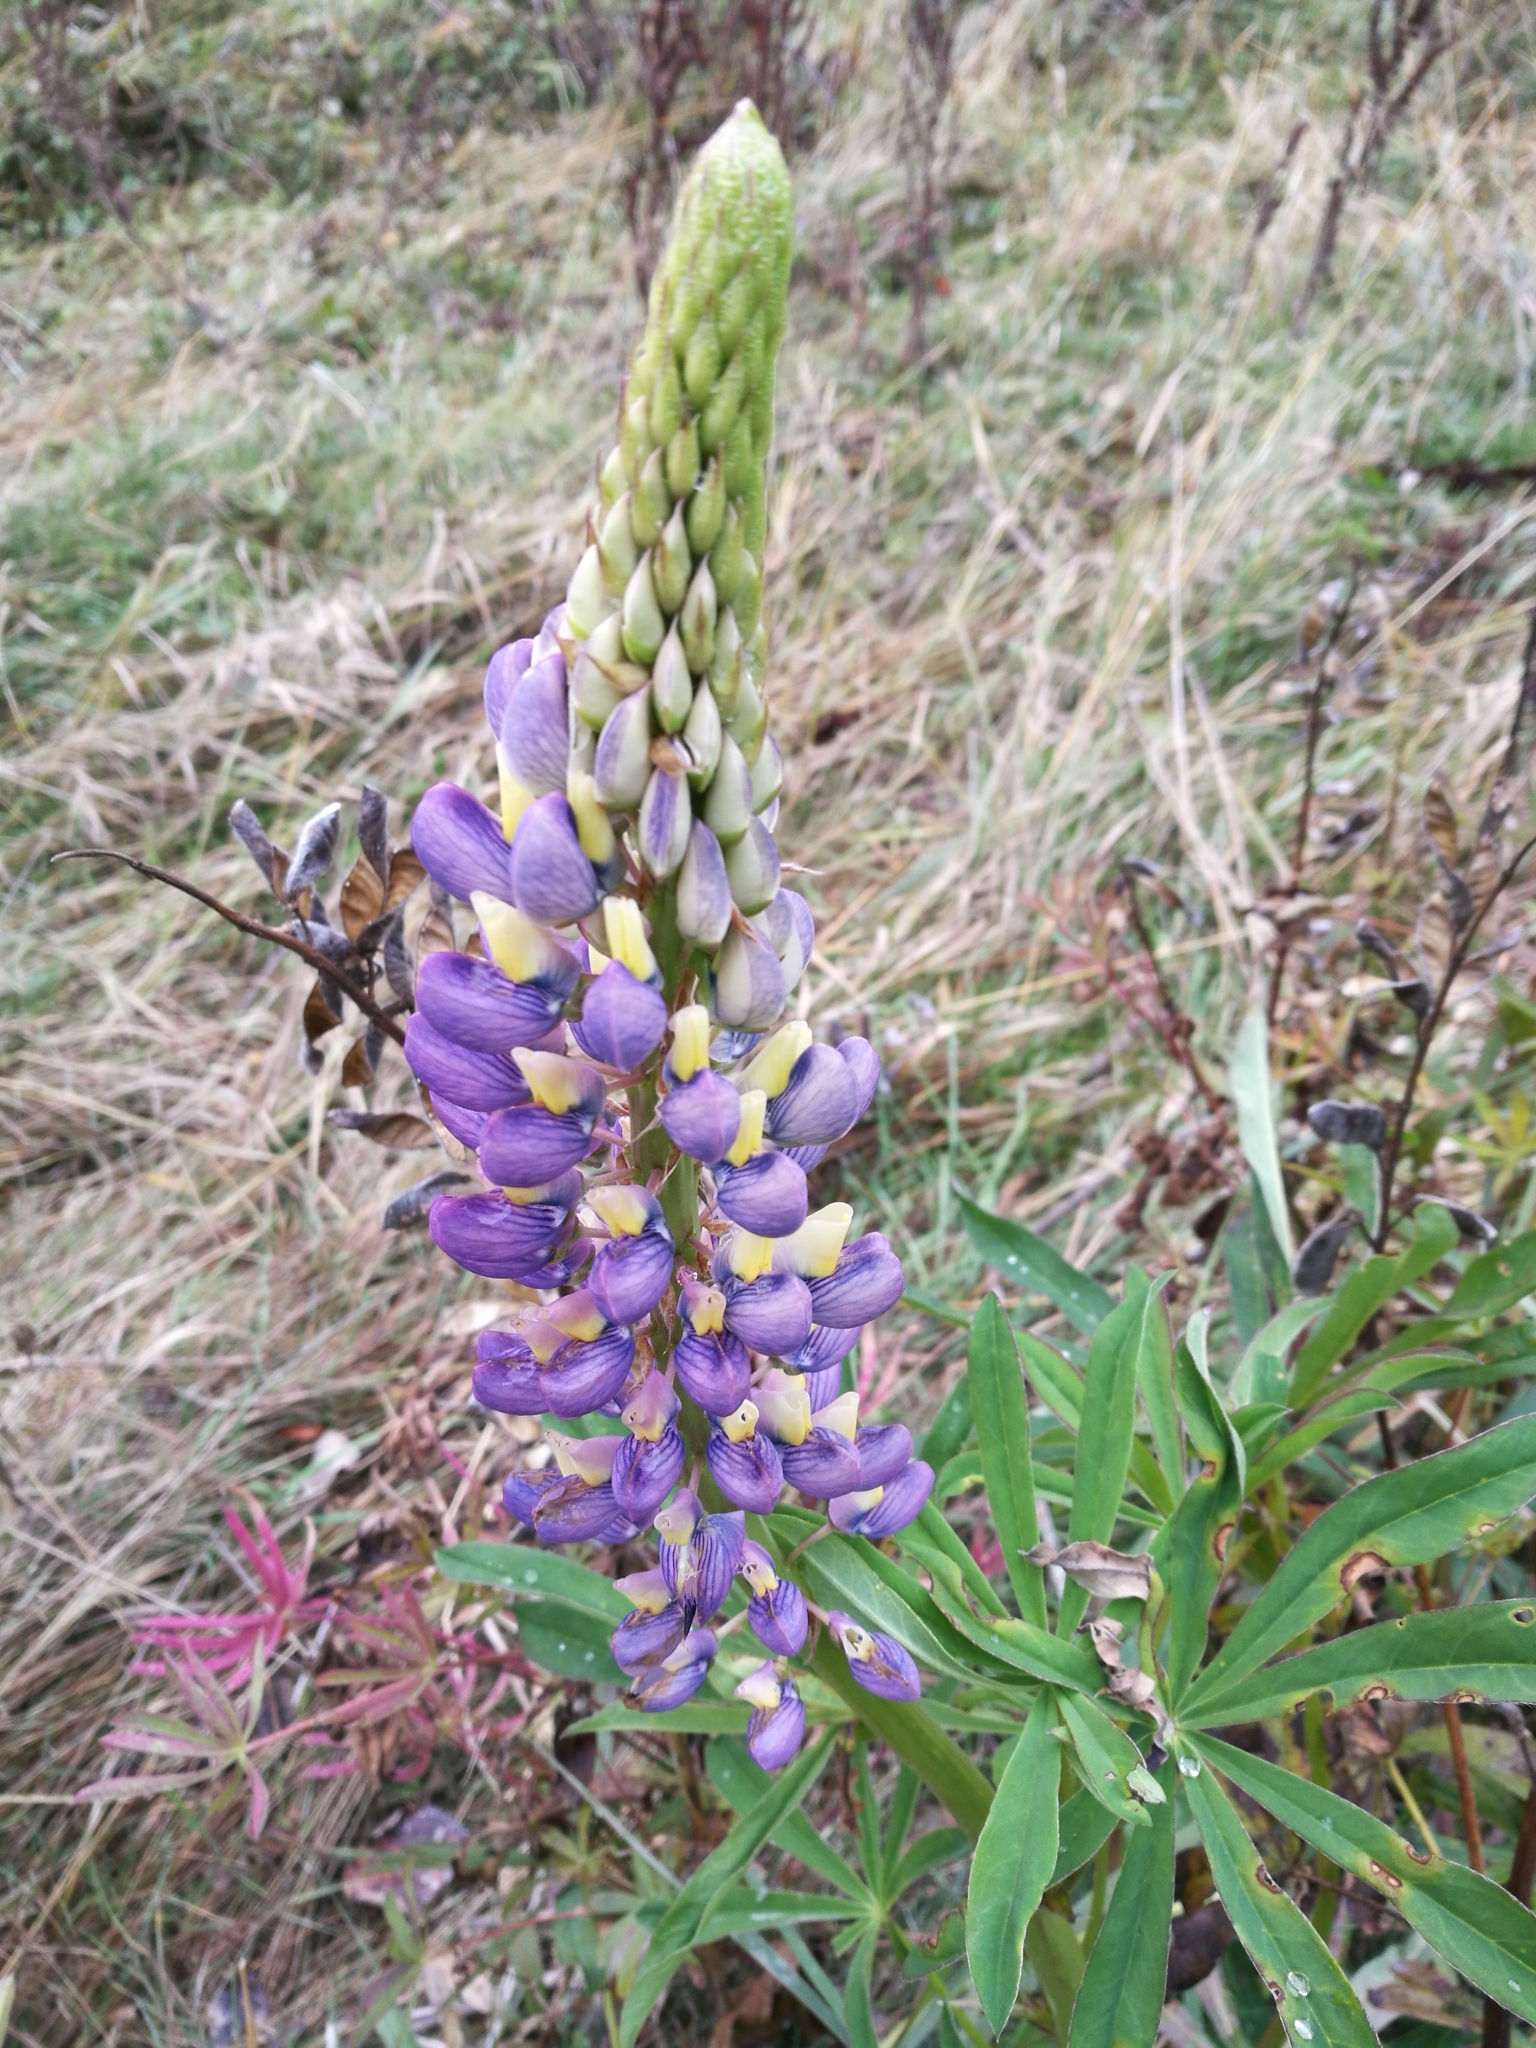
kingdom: Plantae
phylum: Tracheophyta
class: Magnoliopsida
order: Fabales
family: Fabaceae
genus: Lupinus
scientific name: Lupinus polyphyllus
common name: Garden lupin
